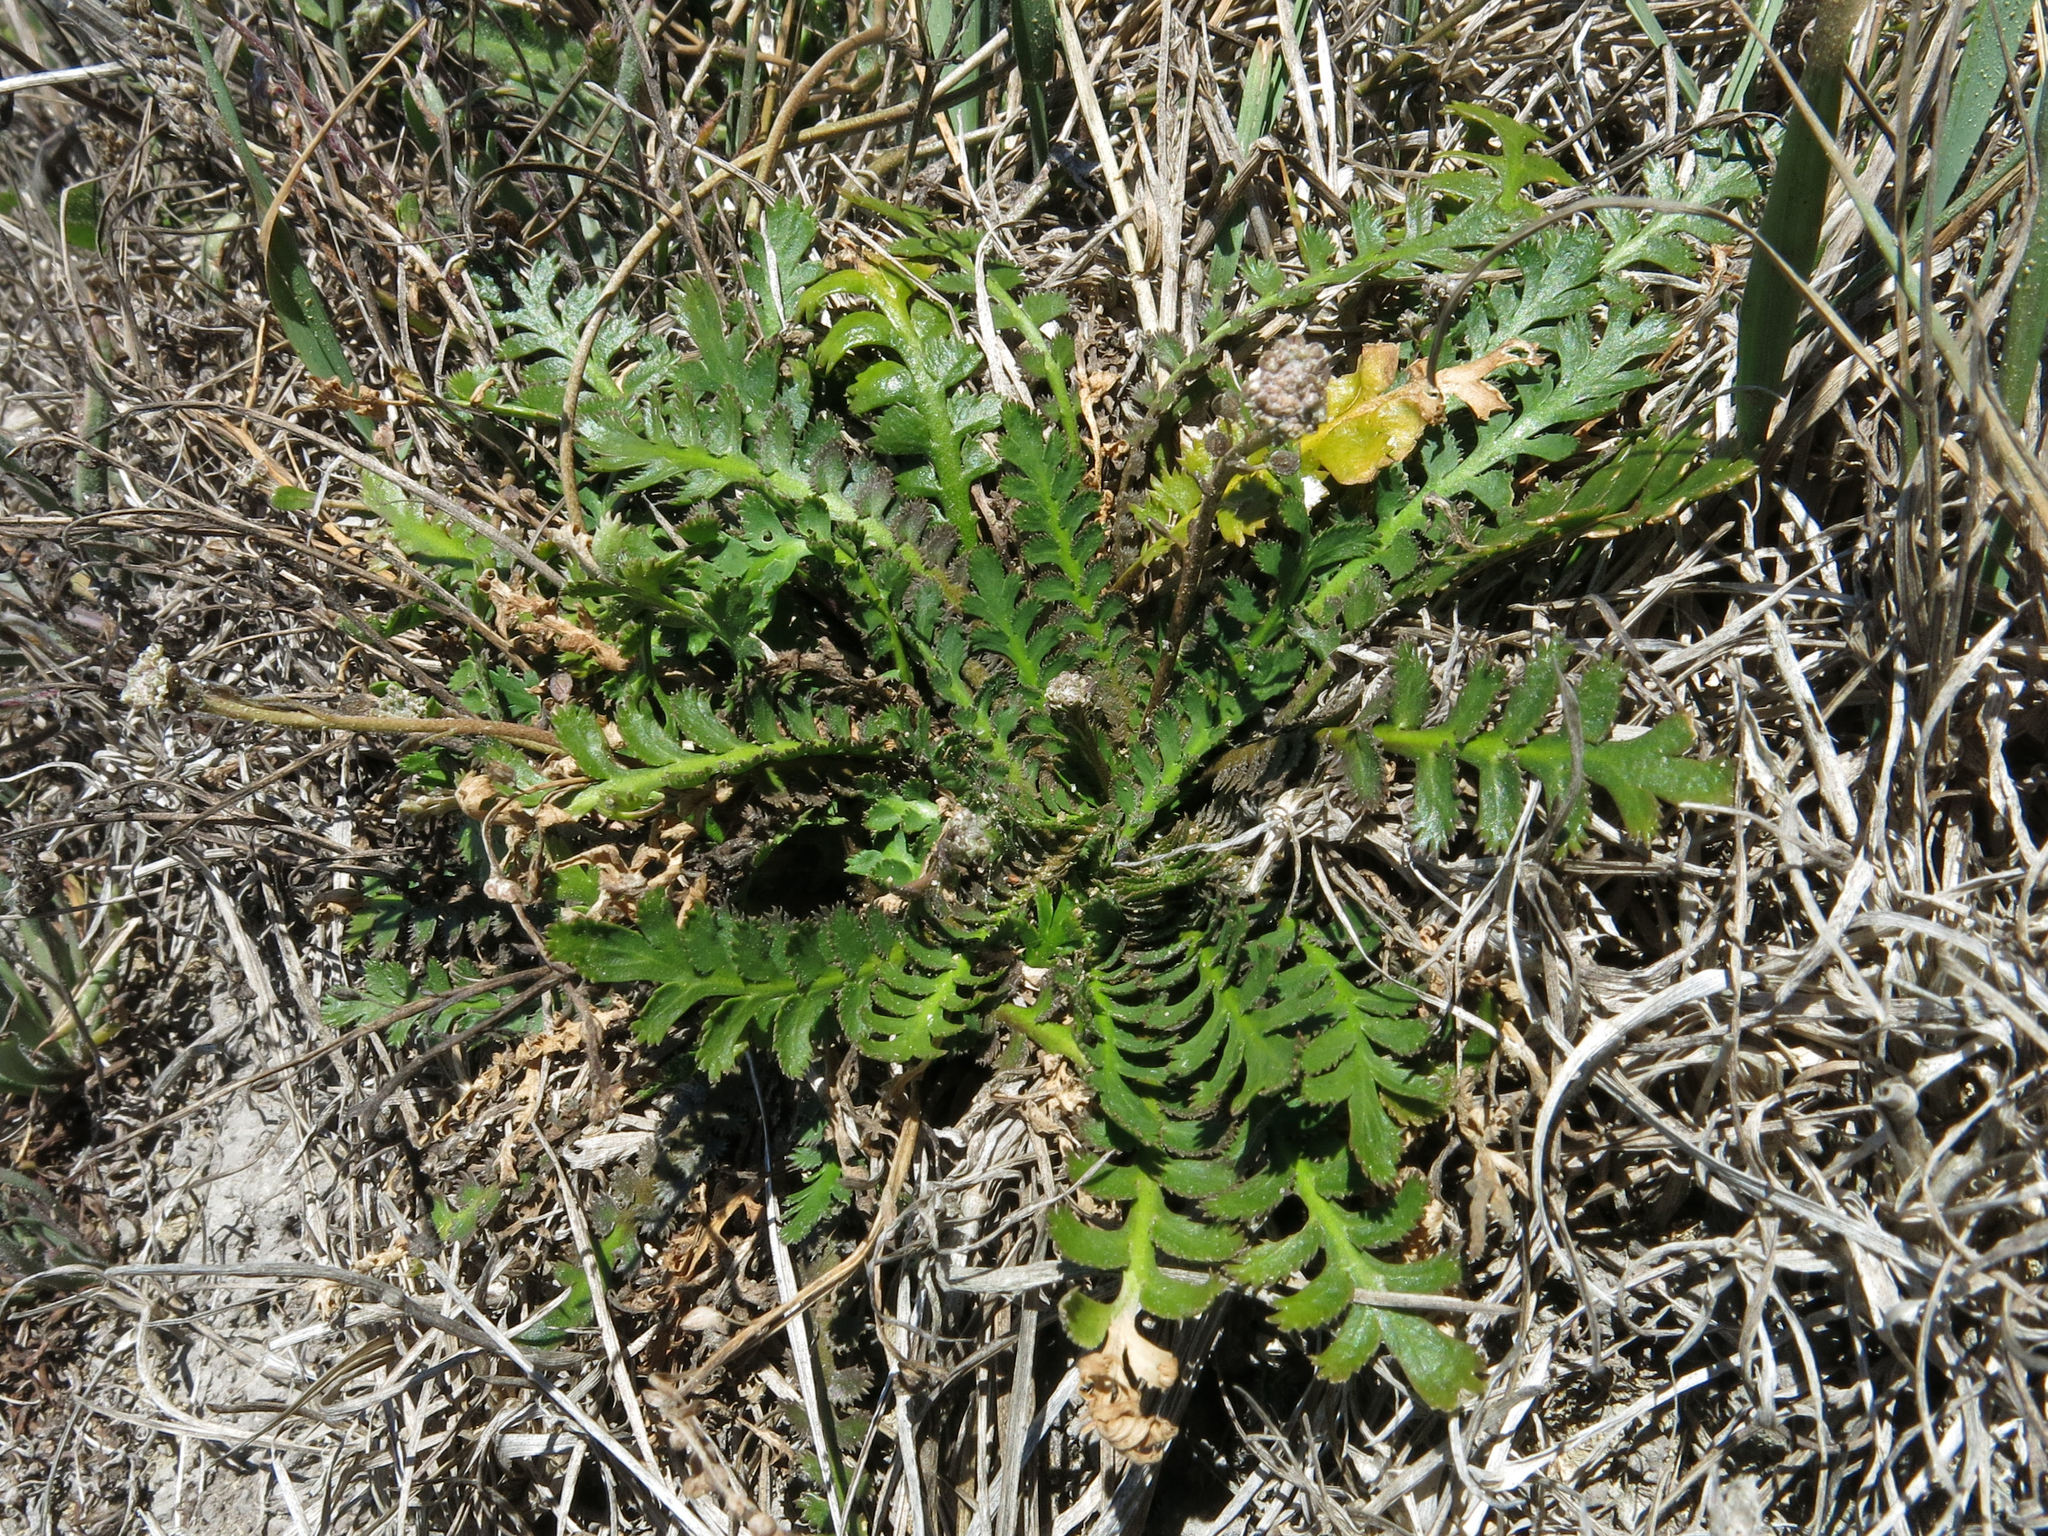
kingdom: Plantae
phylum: Tracheophyta
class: Magnoliopsida
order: Brassicales
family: Brassicaceae
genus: Lepidium
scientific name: Lepidium tenuicaule
